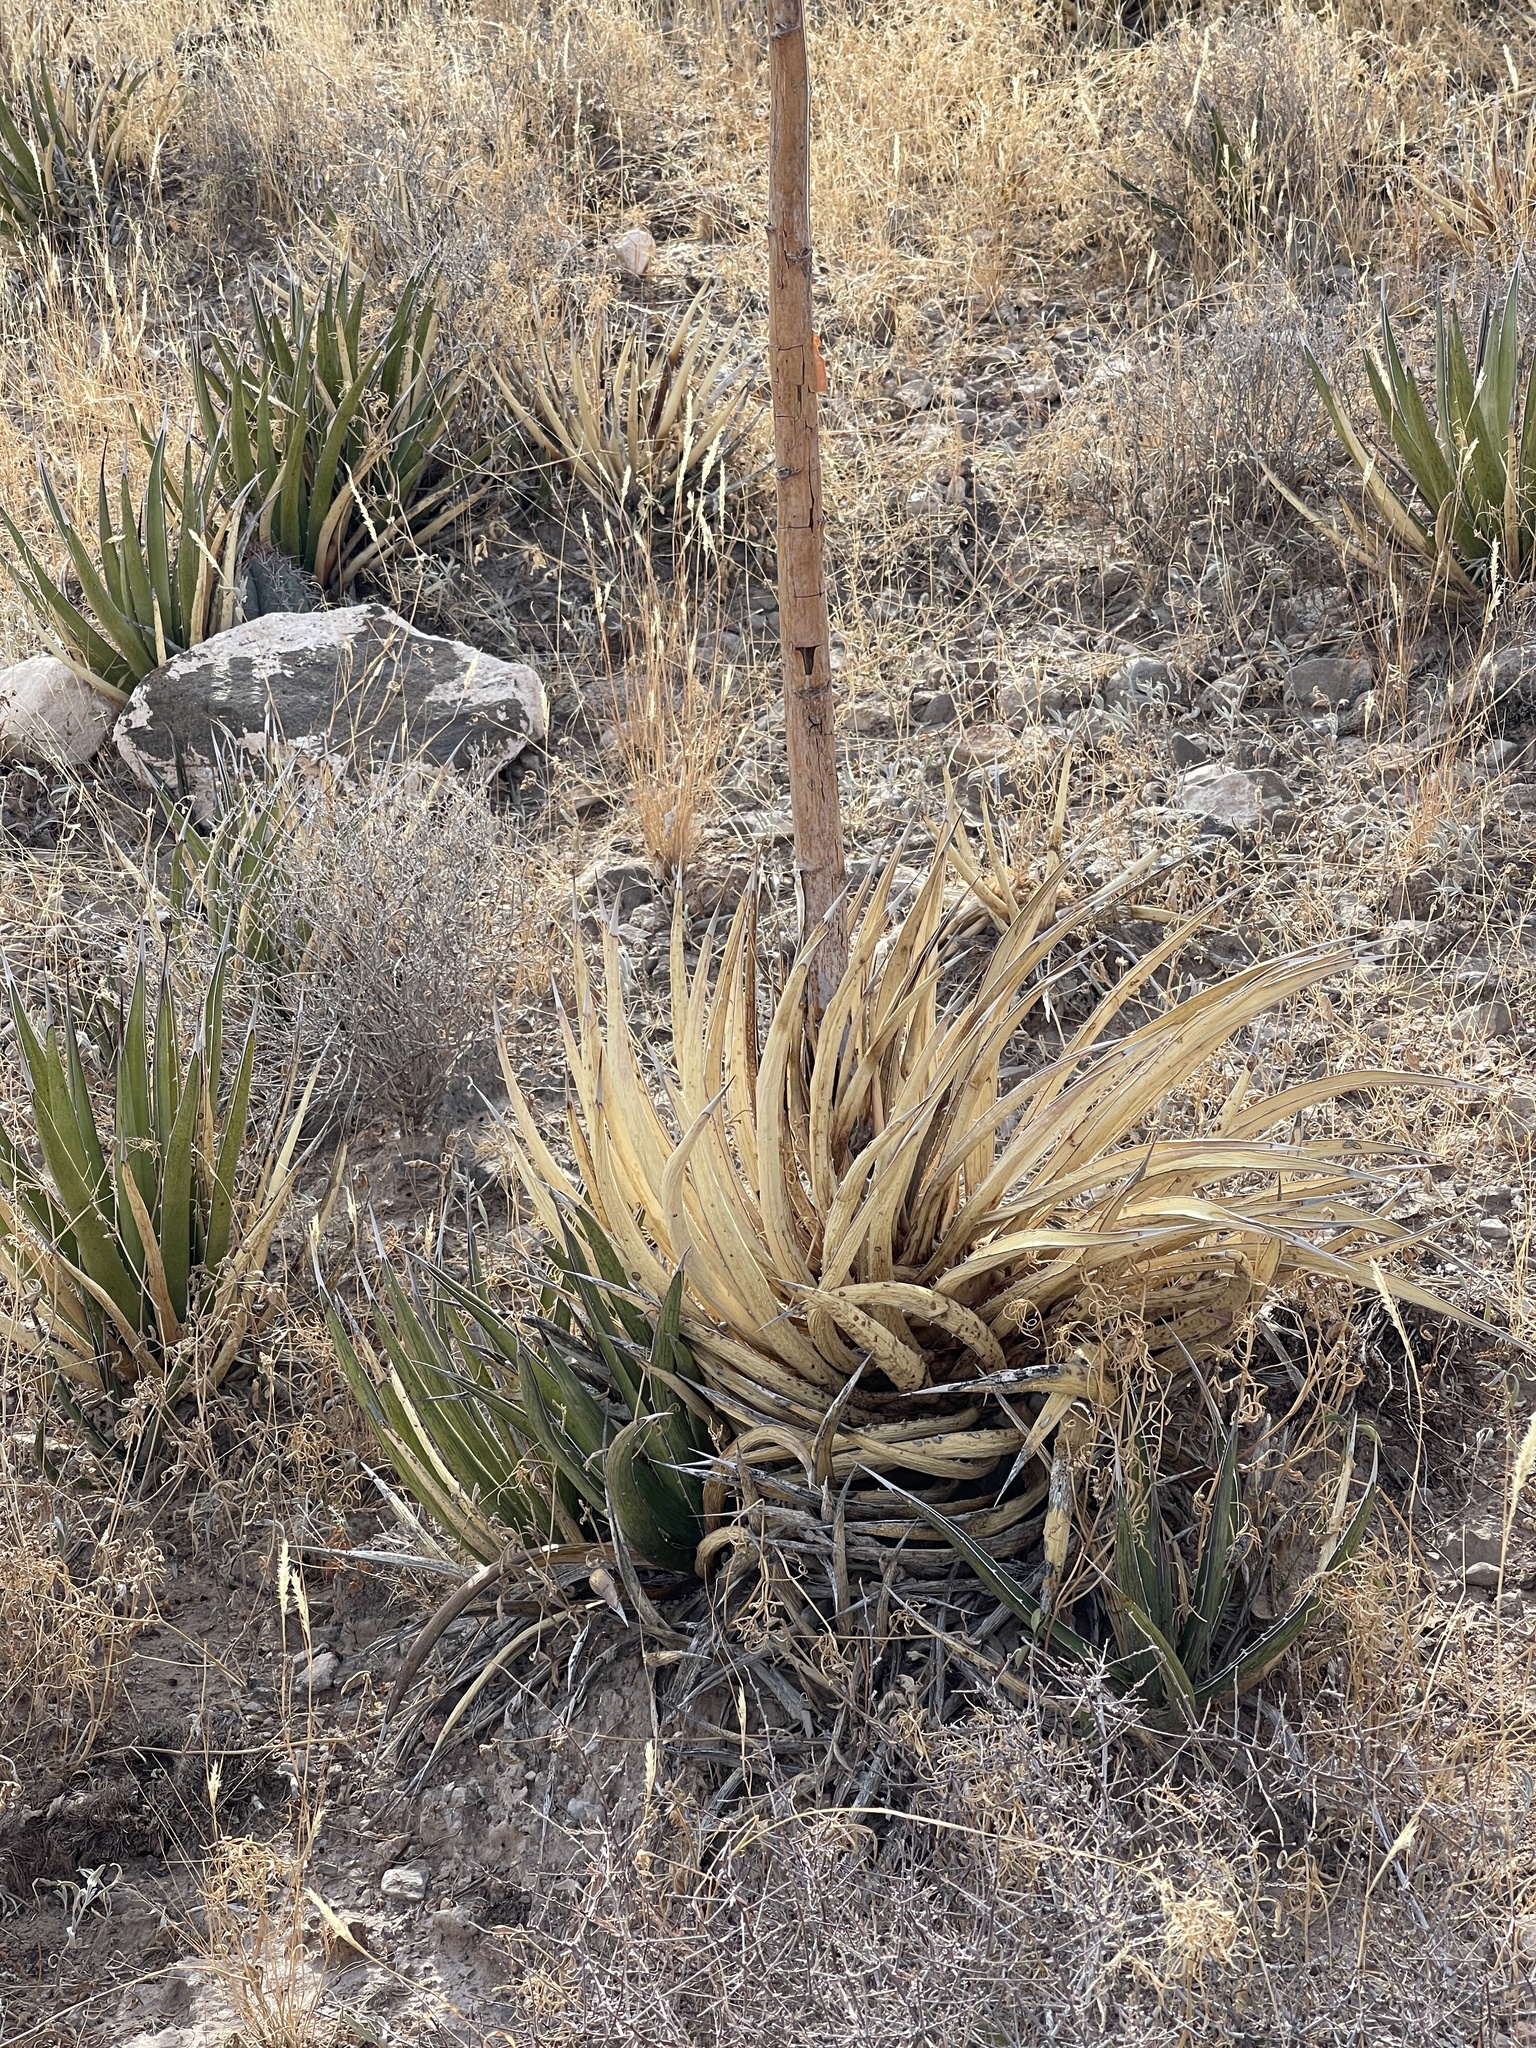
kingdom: Plantae
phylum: Tracheophyta
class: Liliopsida
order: Asparagales
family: Asparagaceae
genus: Agave
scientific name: Agave lechuguilla
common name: Lecheguilla agave
